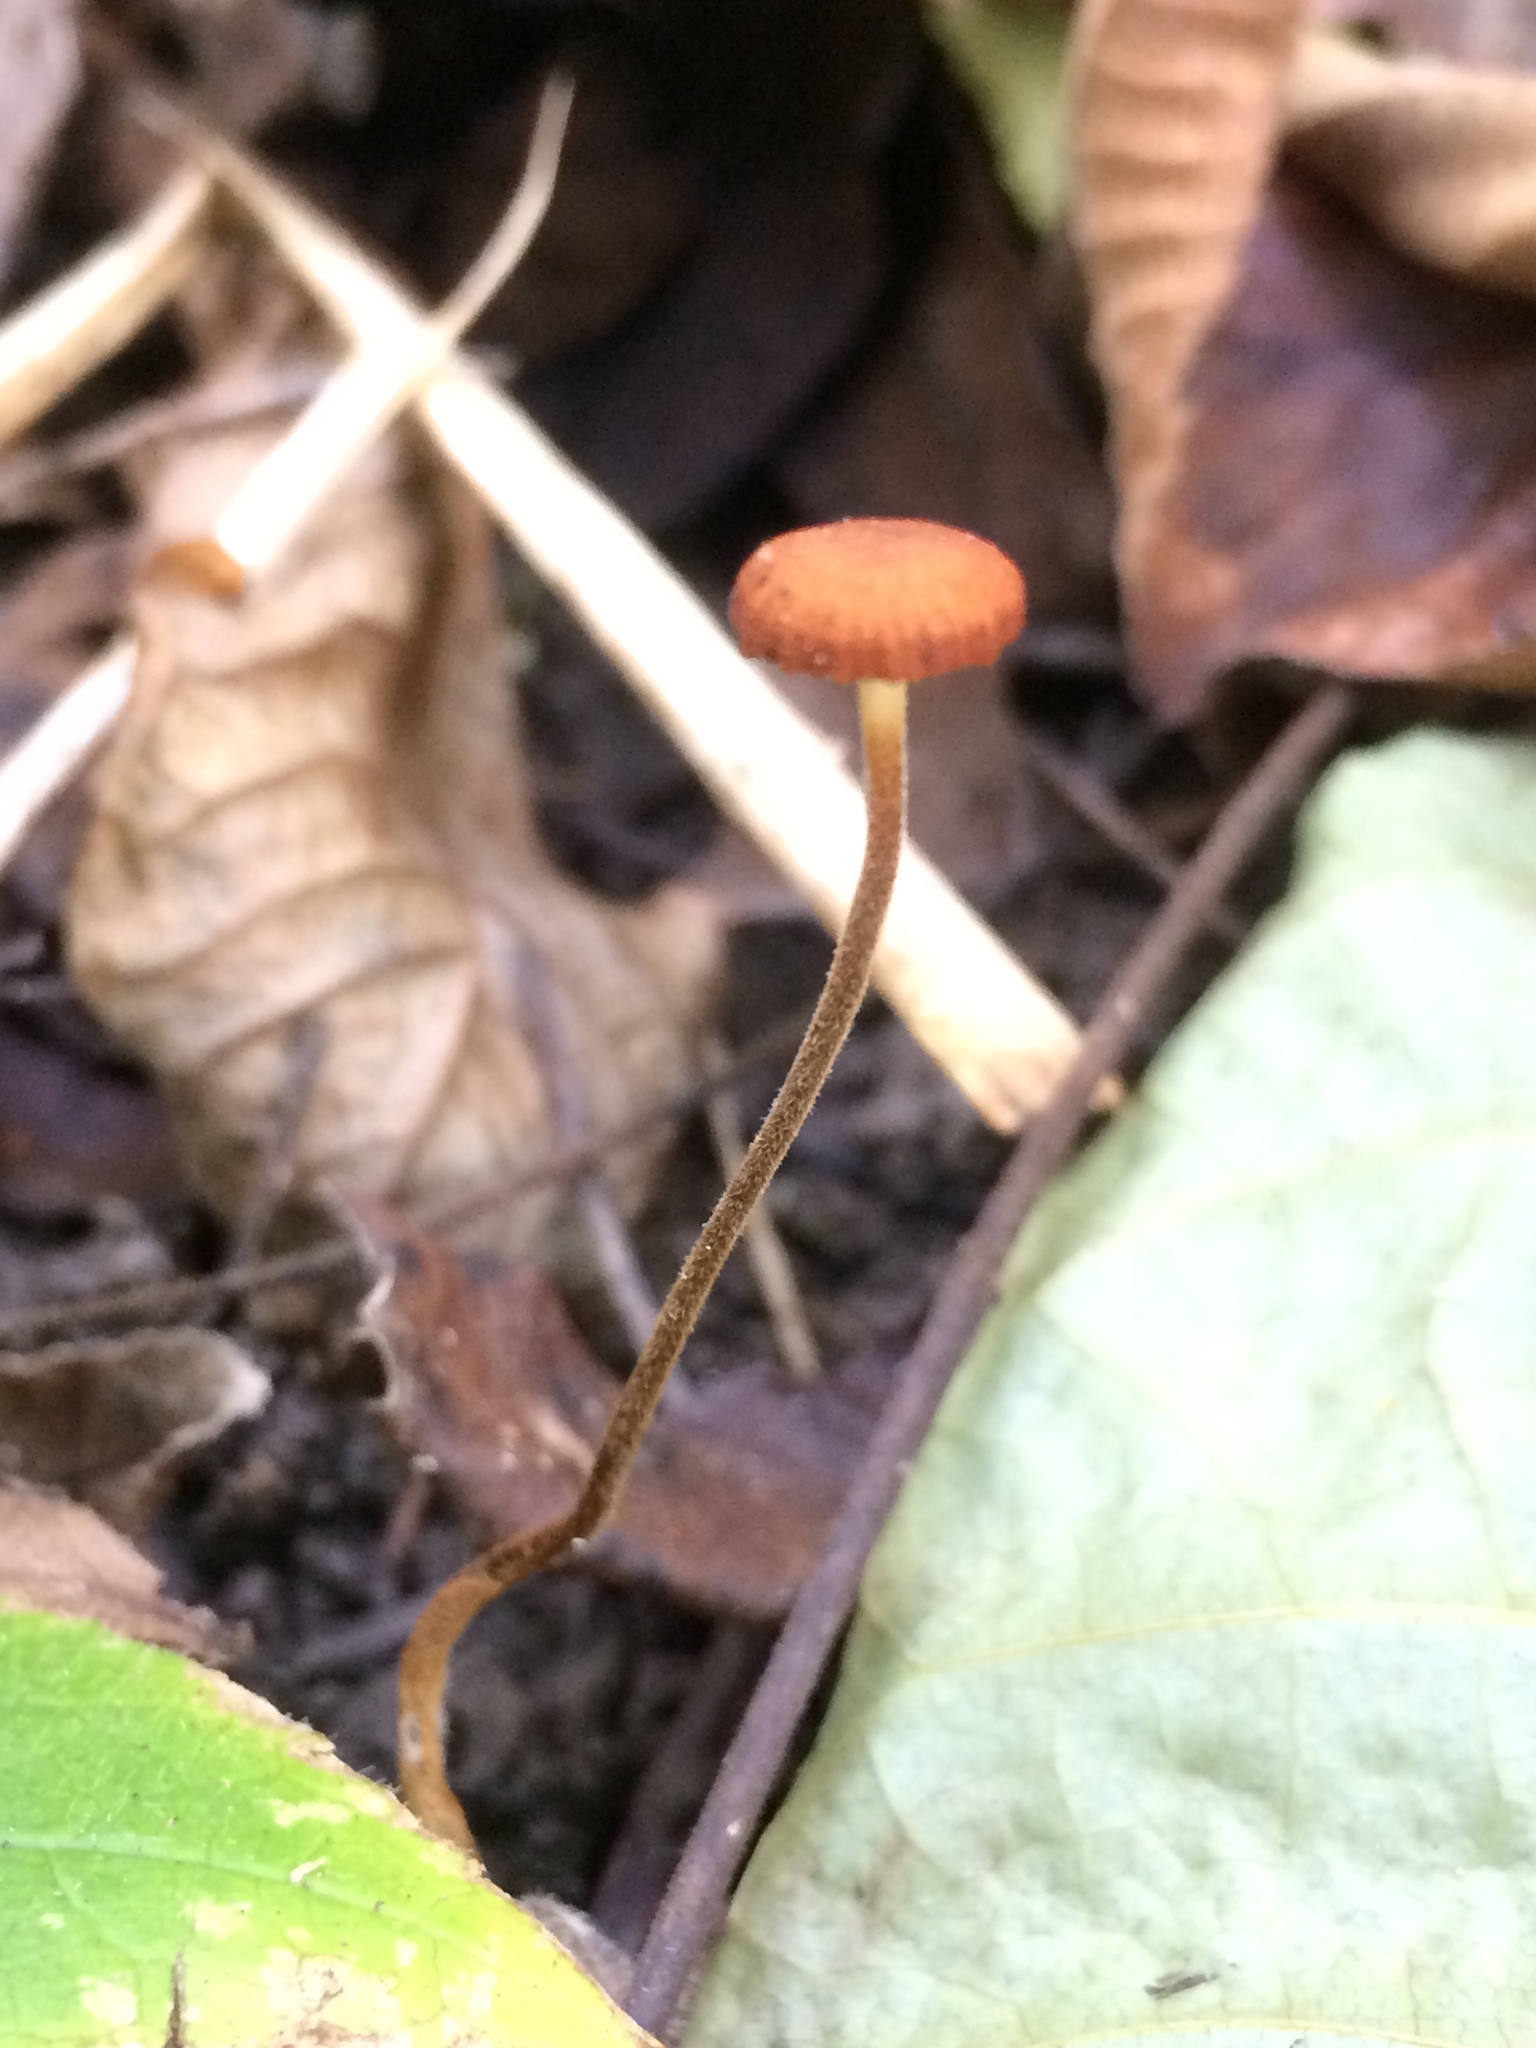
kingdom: Fungi
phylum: Basidiomycota
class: Agaricomycetes
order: Agaricales
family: Physalacriaceae
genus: Rhizomarasmius
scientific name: Rhizomarasmius pyrrhocephalus
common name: Hairy long stem marasmius
